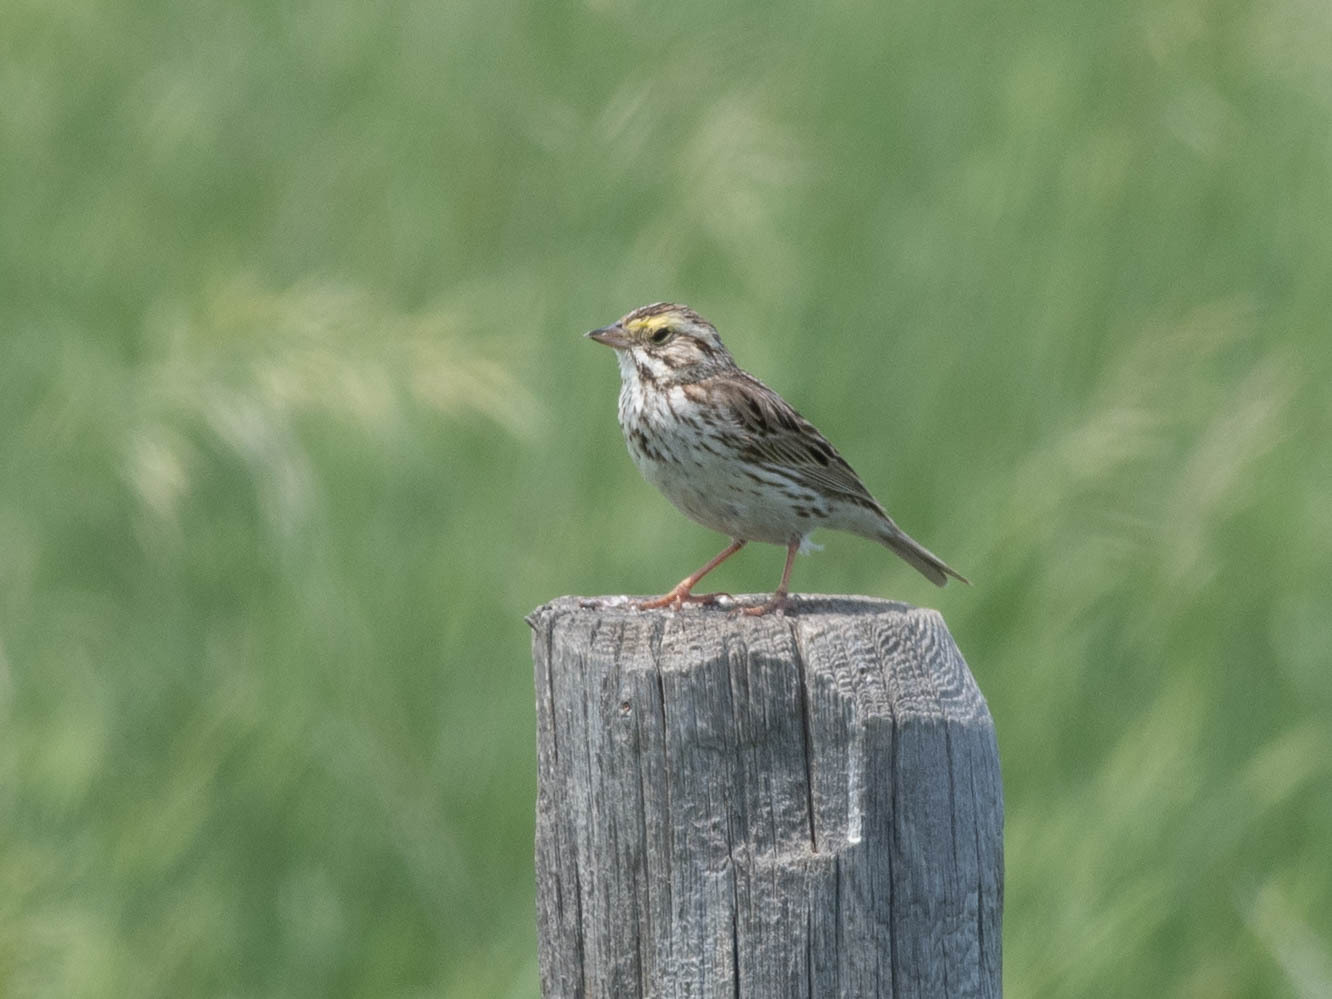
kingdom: Animalia
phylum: Chordata
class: Aves
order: Passeriformes
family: Passerellidae
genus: Passerculus
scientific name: Passerculus sandwichensis
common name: Savannah sparrow
